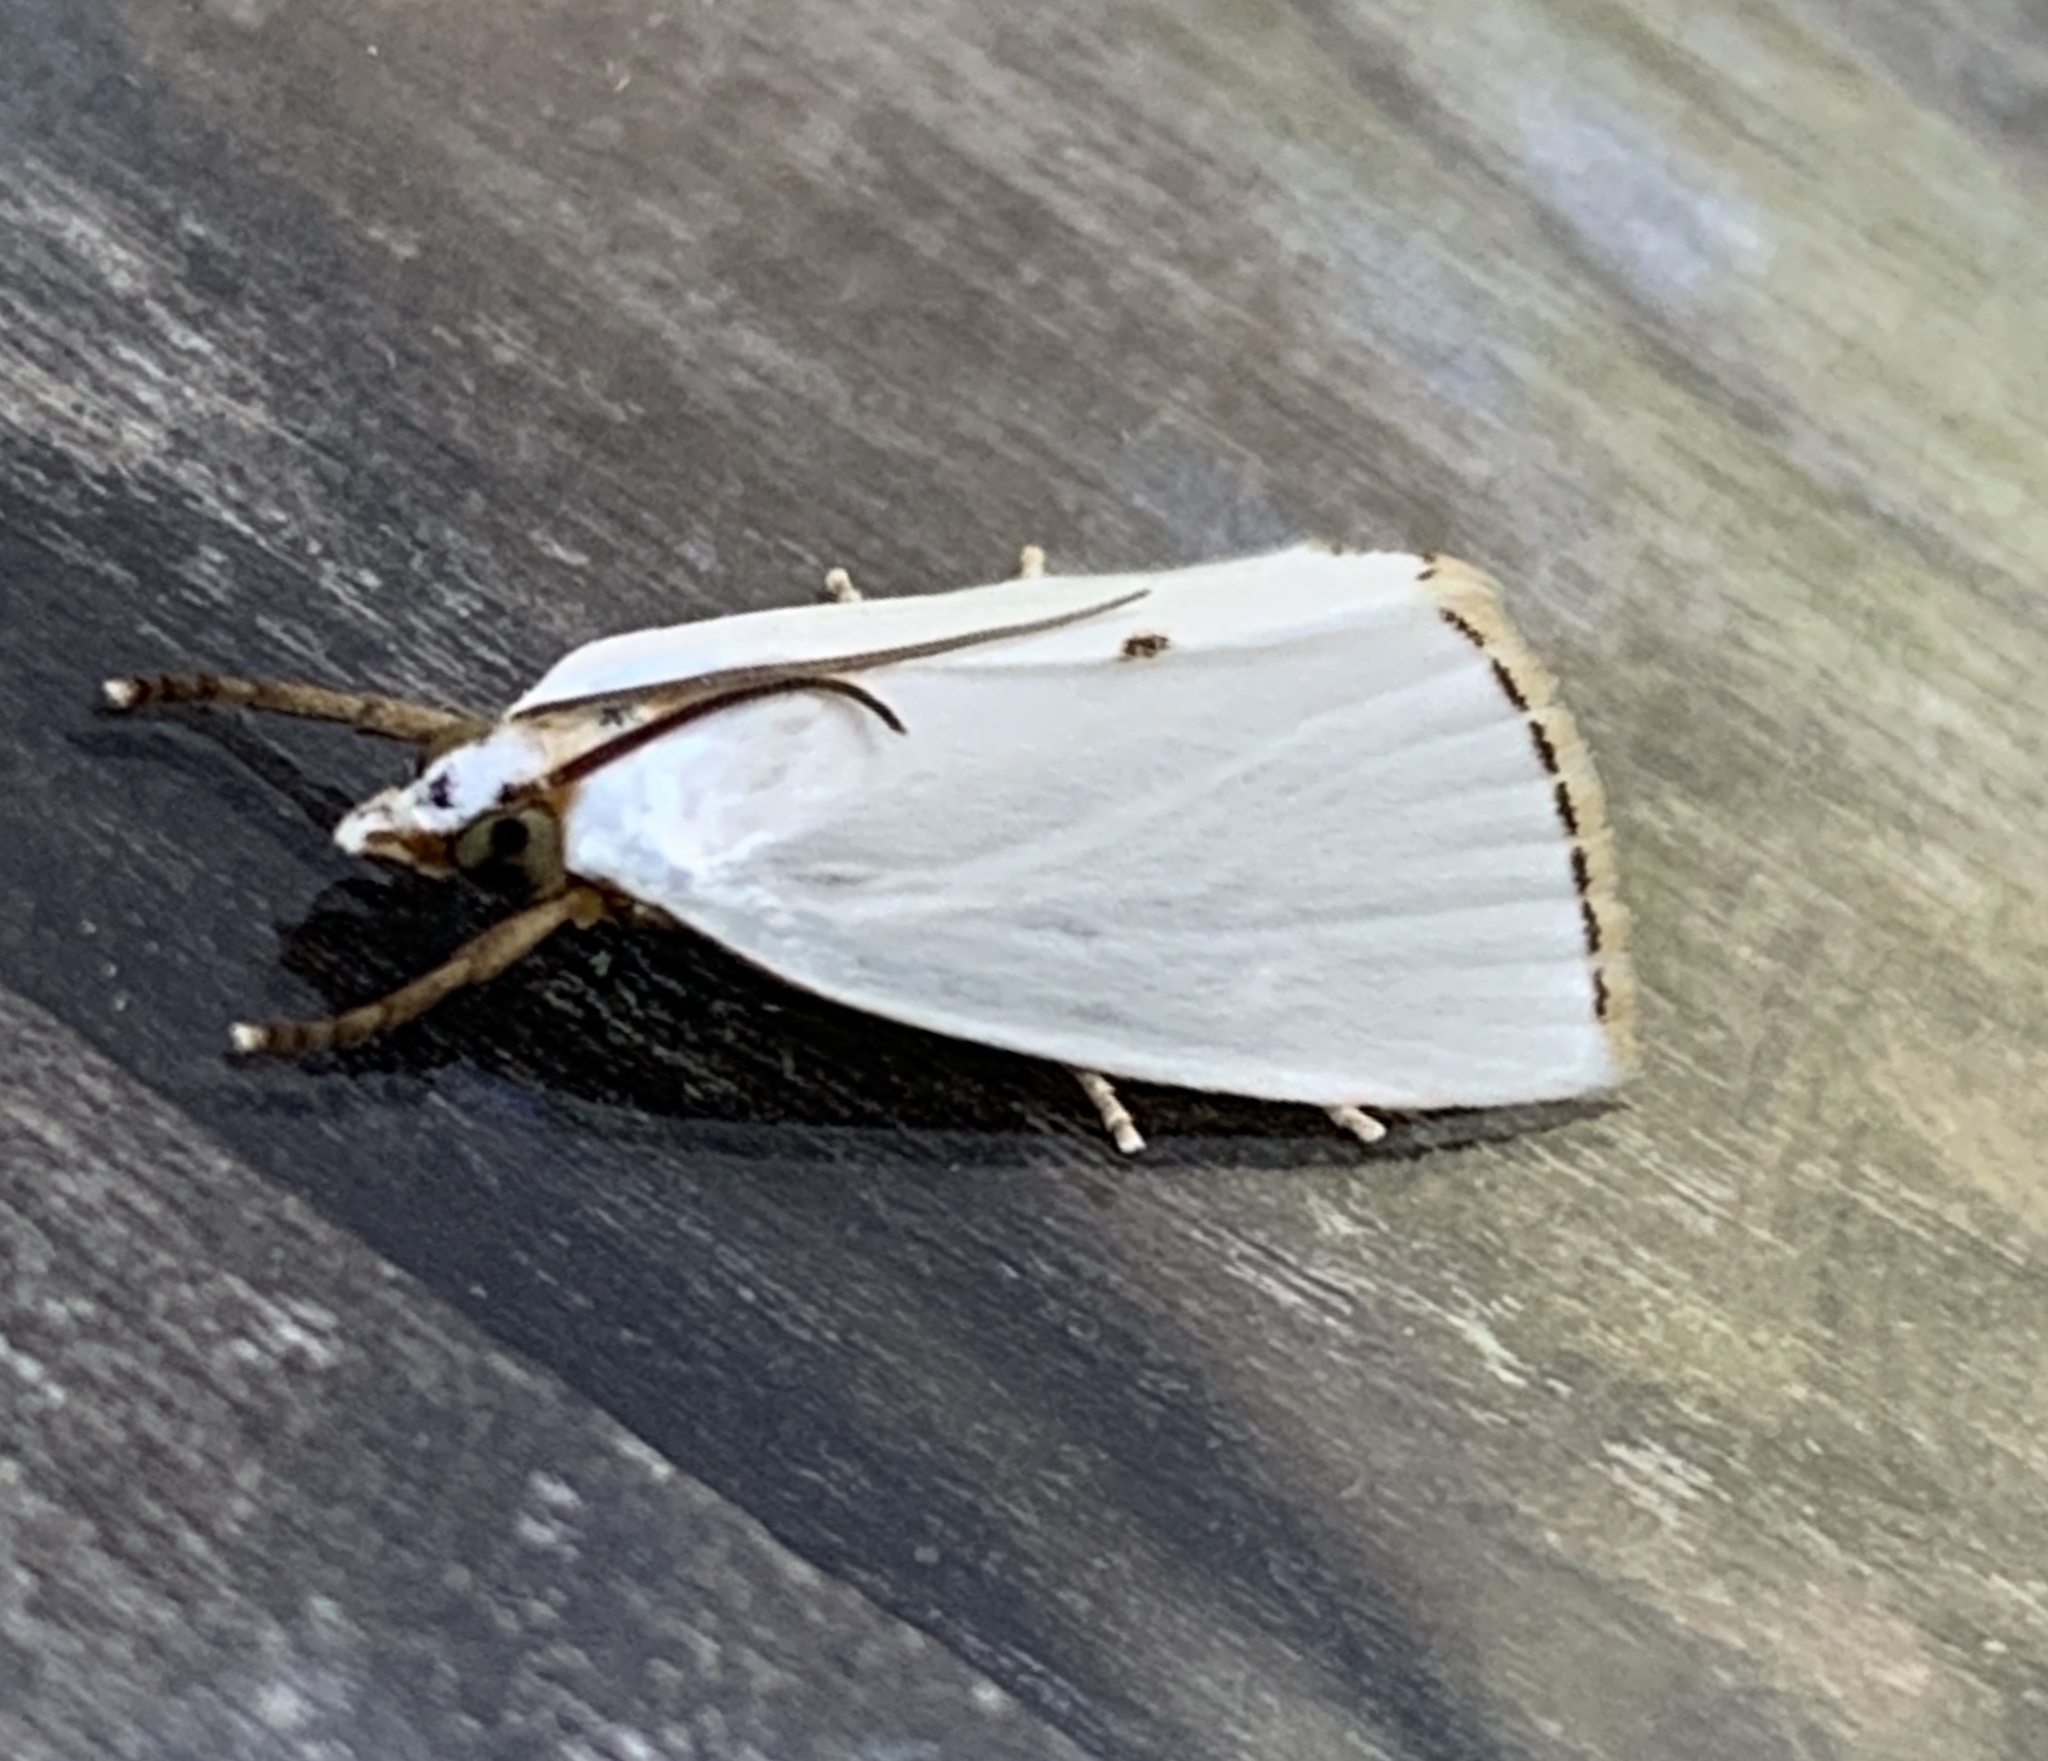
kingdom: Animalia
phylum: Arthropoda
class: Insecta
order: Lepidoptera
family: Crambidae
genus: Argyria
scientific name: Argyria nivalis
